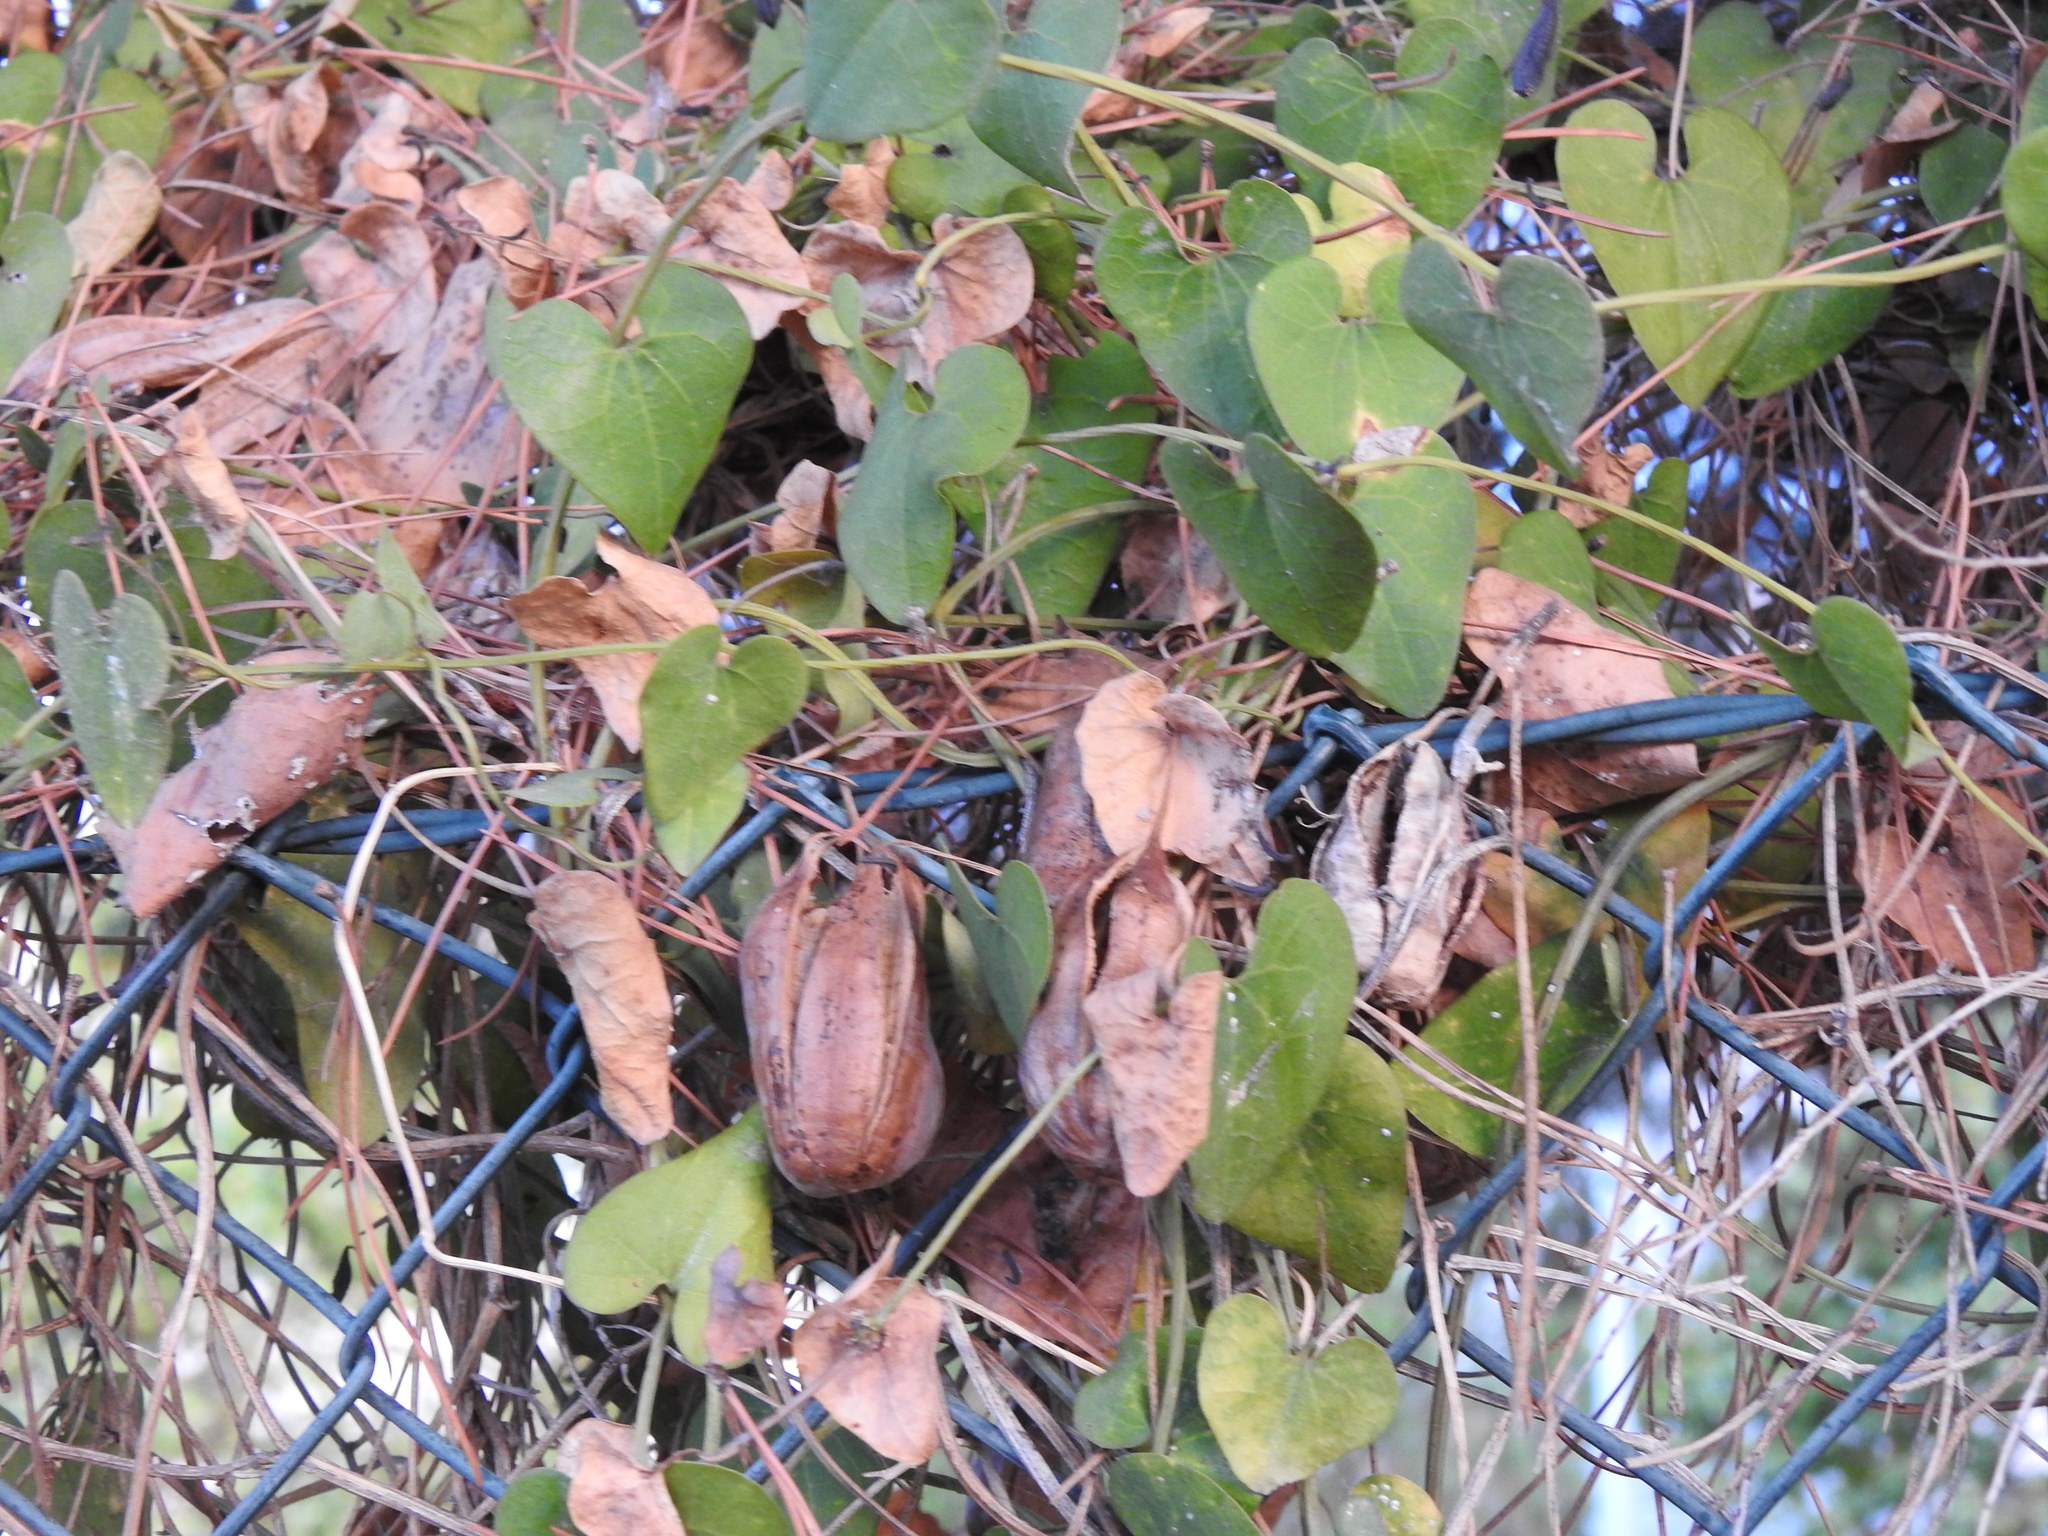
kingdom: Plantae
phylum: Tracheophyta
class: Magnoliopsida
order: Piperales
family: Aristolochiaceae
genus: Aristolochia
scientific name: Aristolochia baetica
